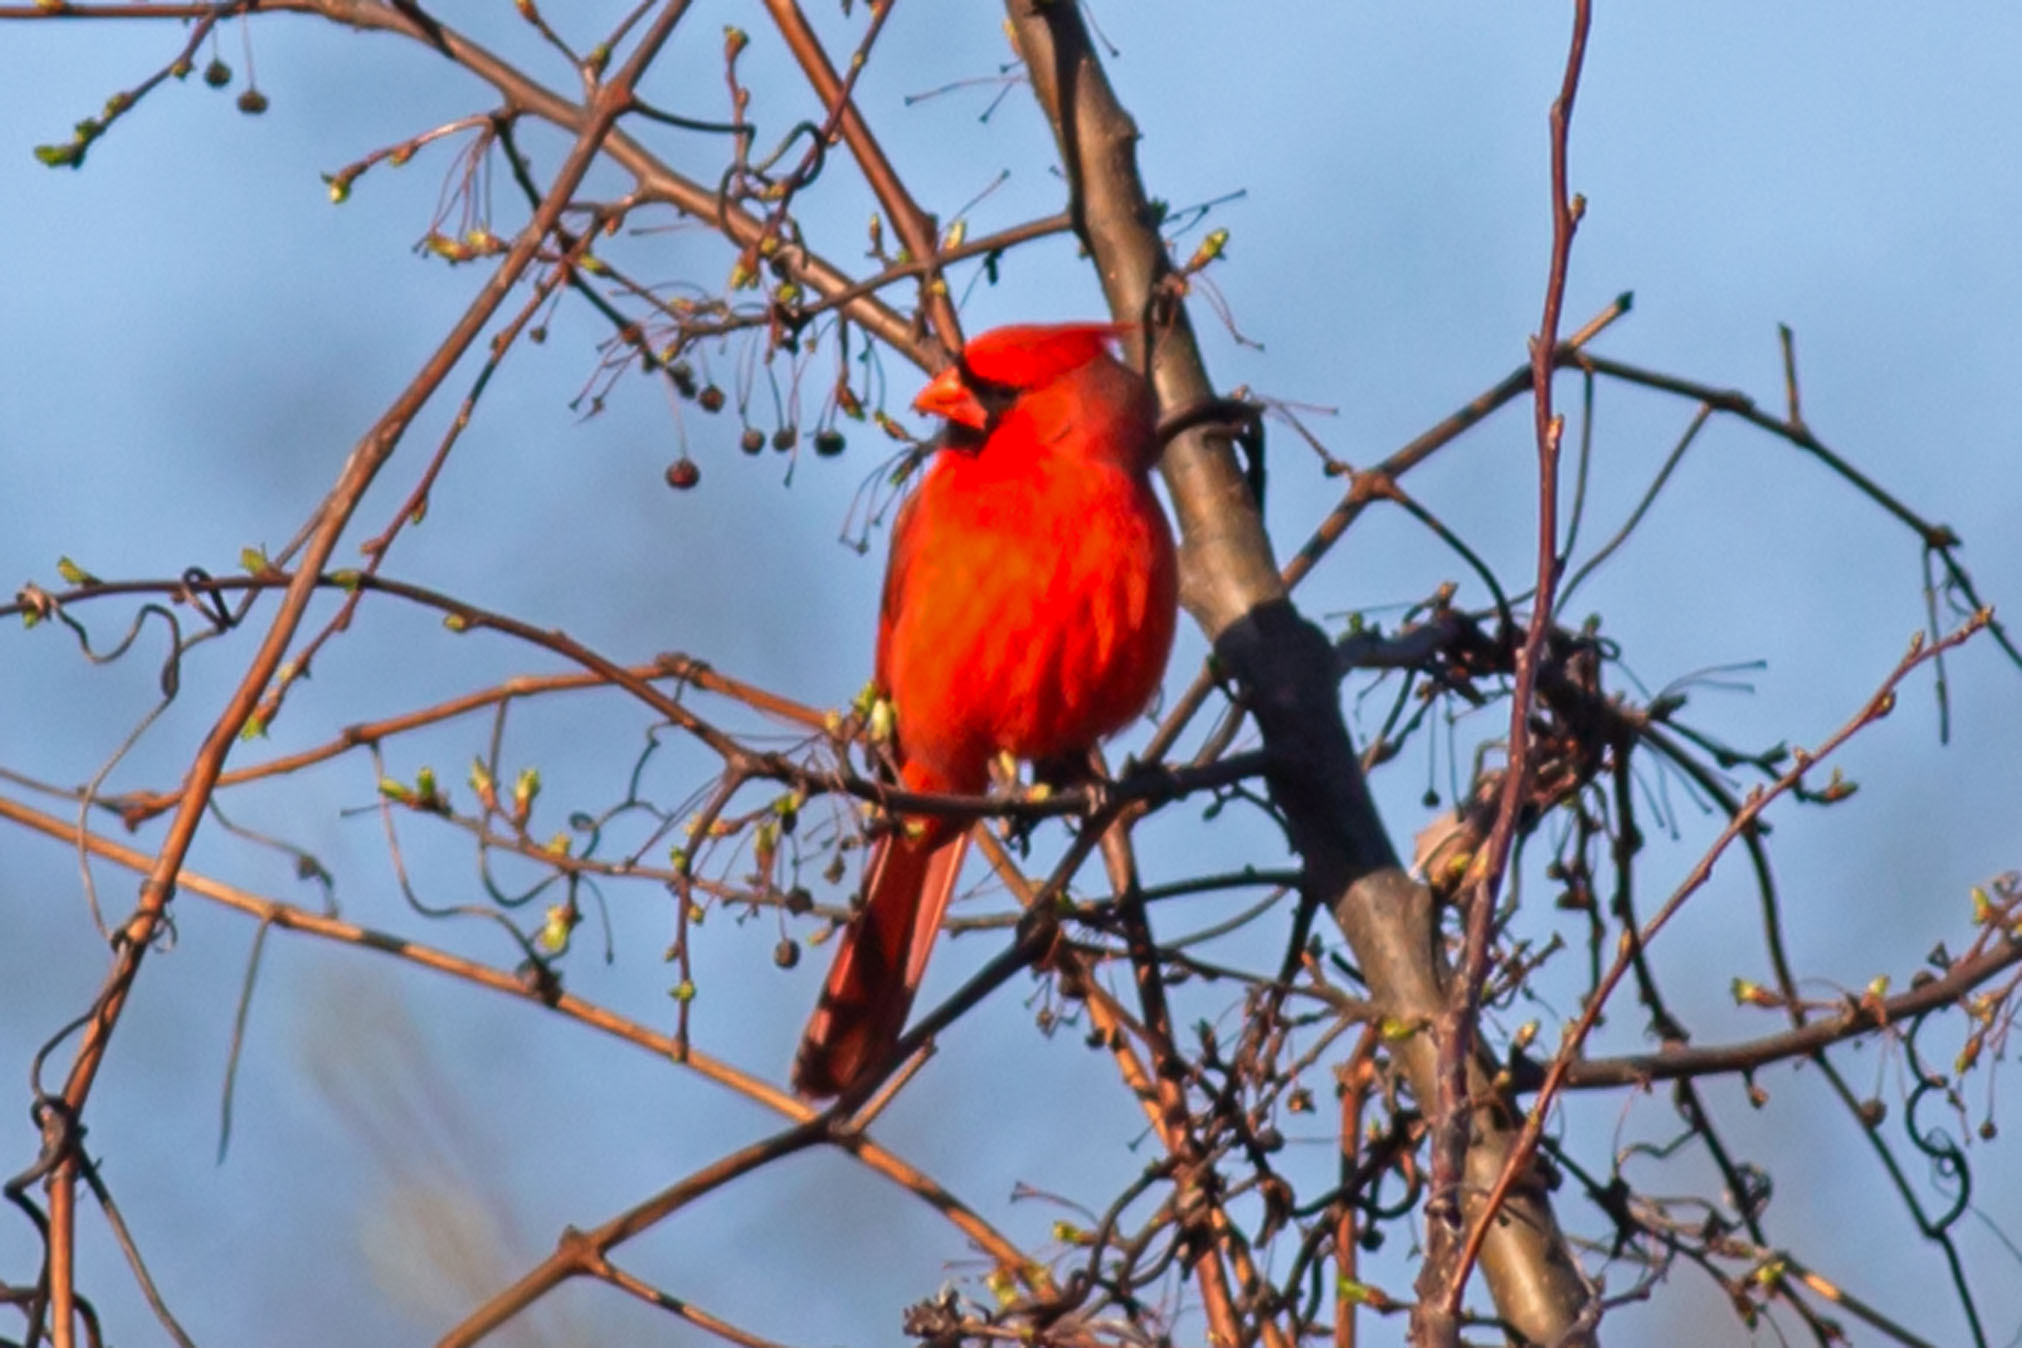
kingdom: Animalia
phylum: Chordata
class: Aves
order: Passeriformes
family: Cardinalidae
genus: Cardinalis
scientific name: Cardinalis cardinalis
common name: Northern cardinal
